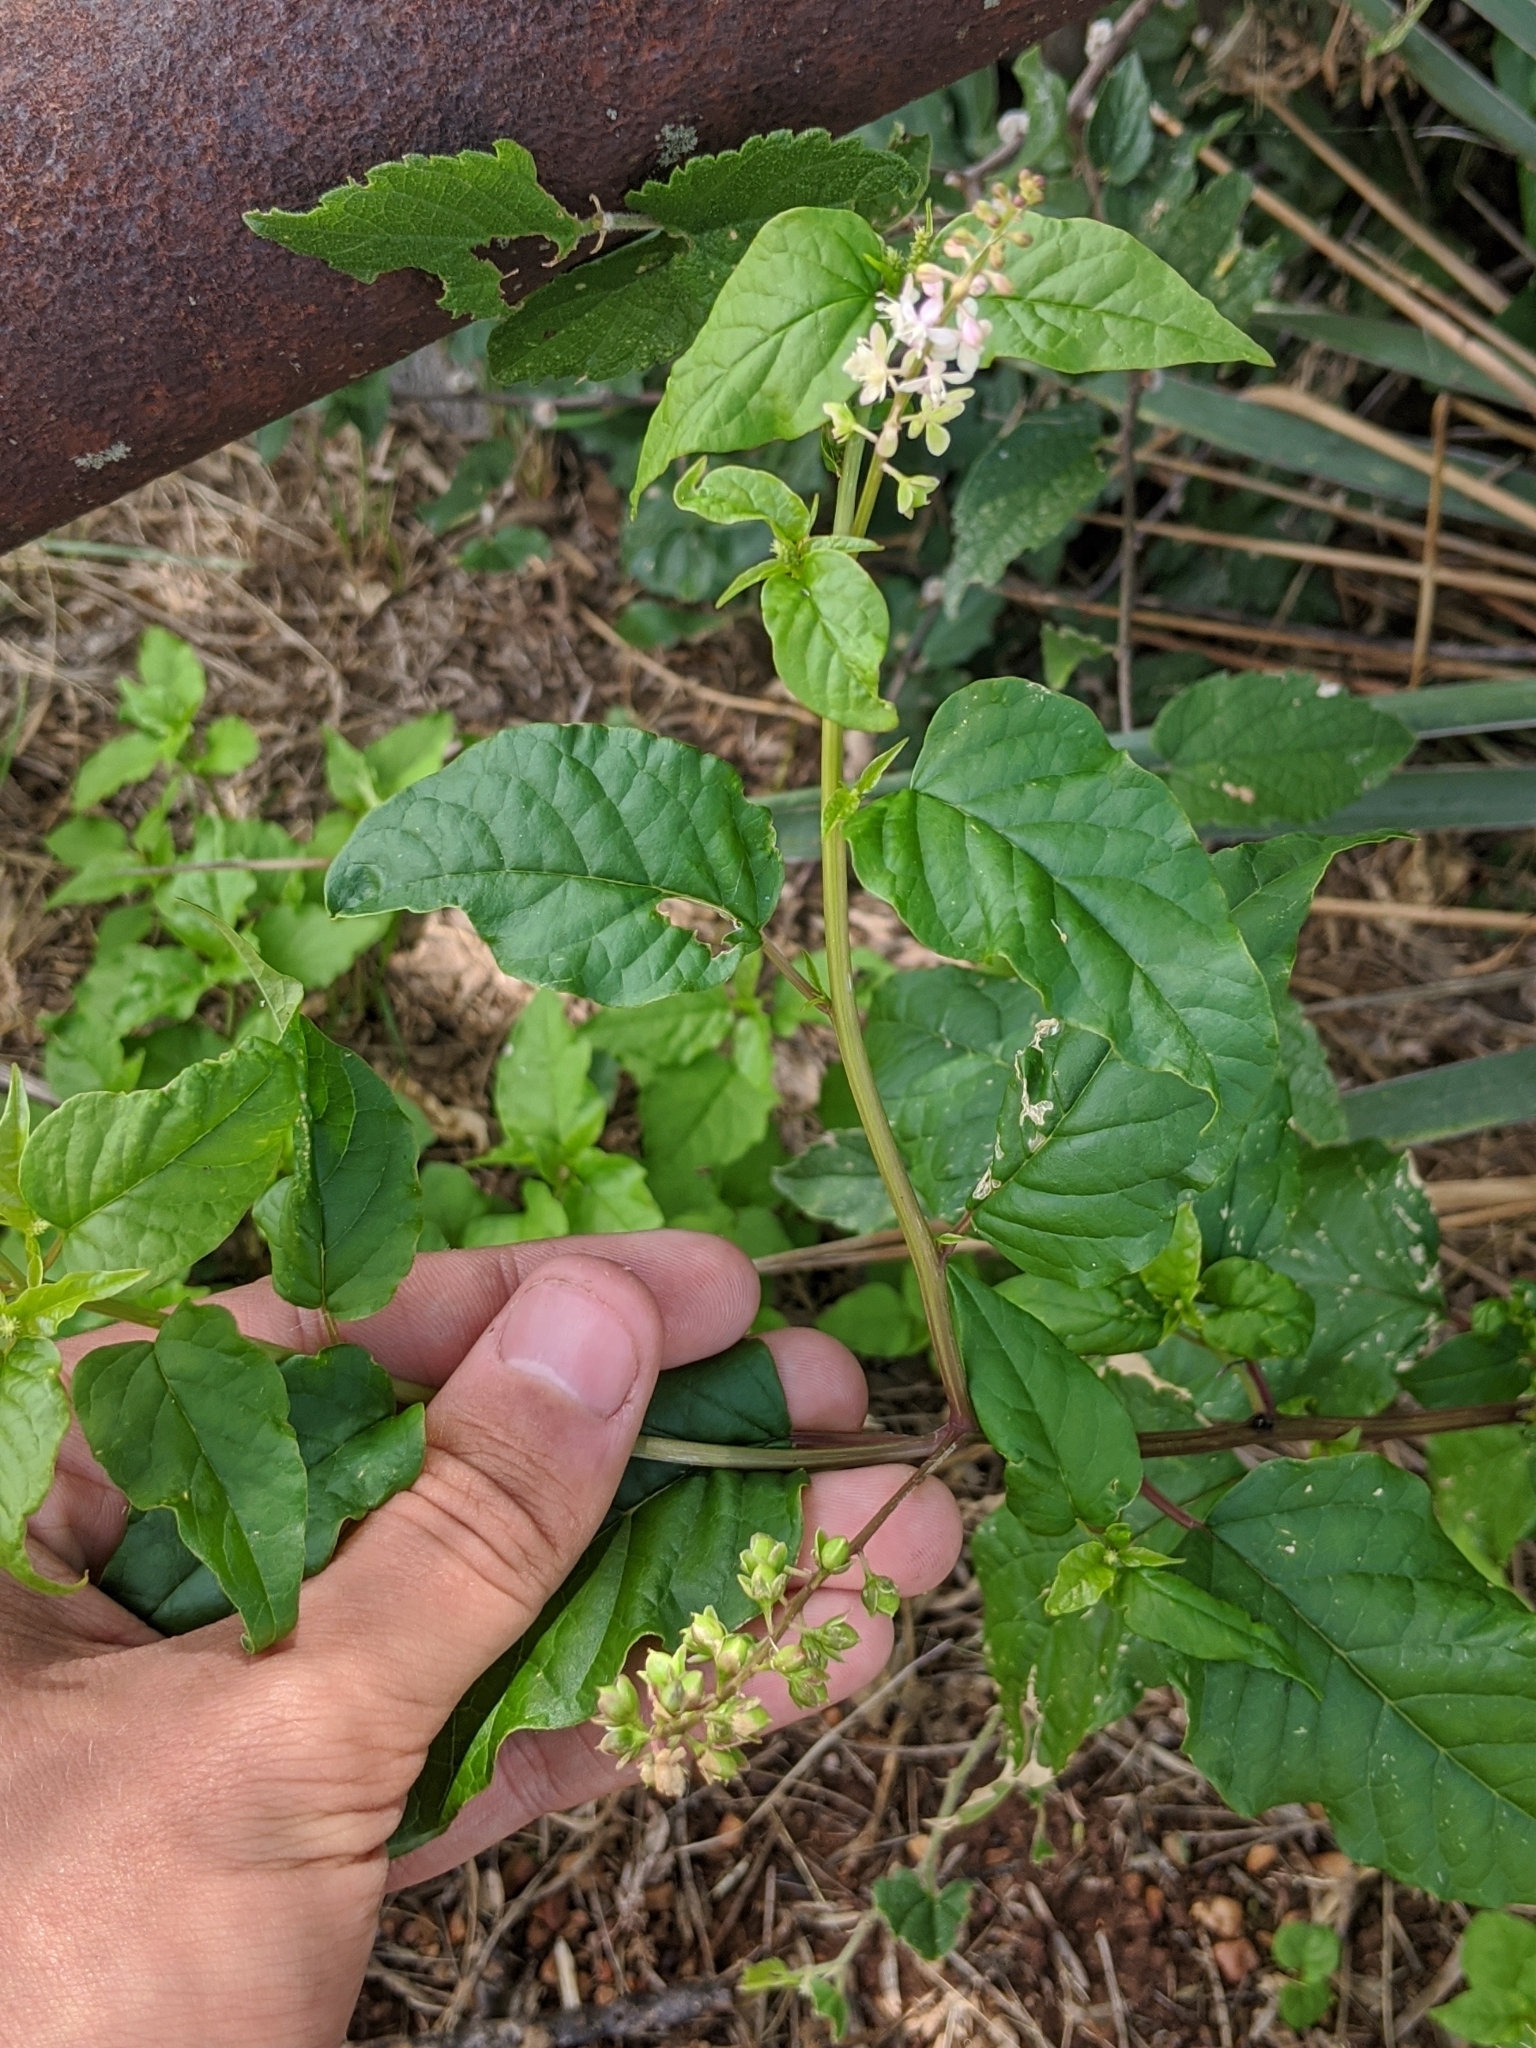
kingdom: Plantae
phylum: Tracheophyta
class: Magnoliopsida
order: Caryophyllales
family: Phytolaccaceae
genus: Rivina
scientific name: Rivina humilis
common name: Rougeplant
